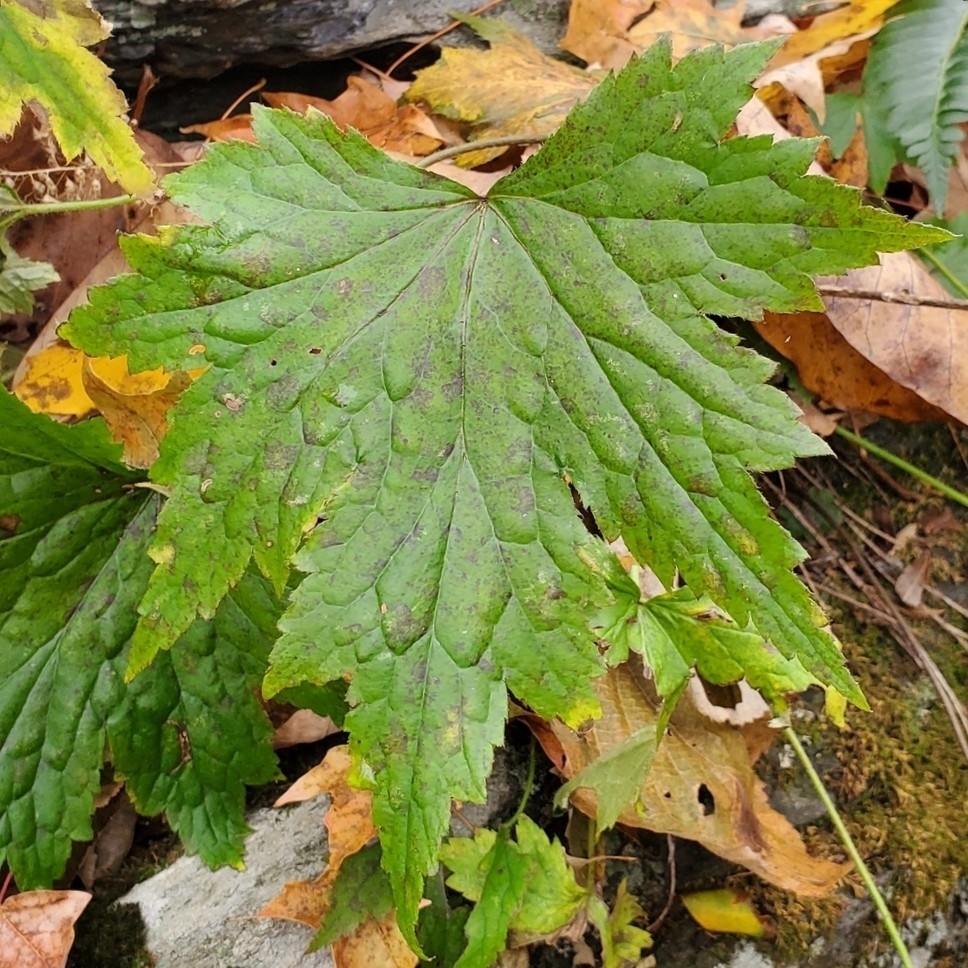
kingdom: Plantae
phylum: Tracheophyta
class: Magnoliopsida
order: Saxifragales
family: Saxifragaceae
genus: Heuchera
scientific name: Heuchera villosa
